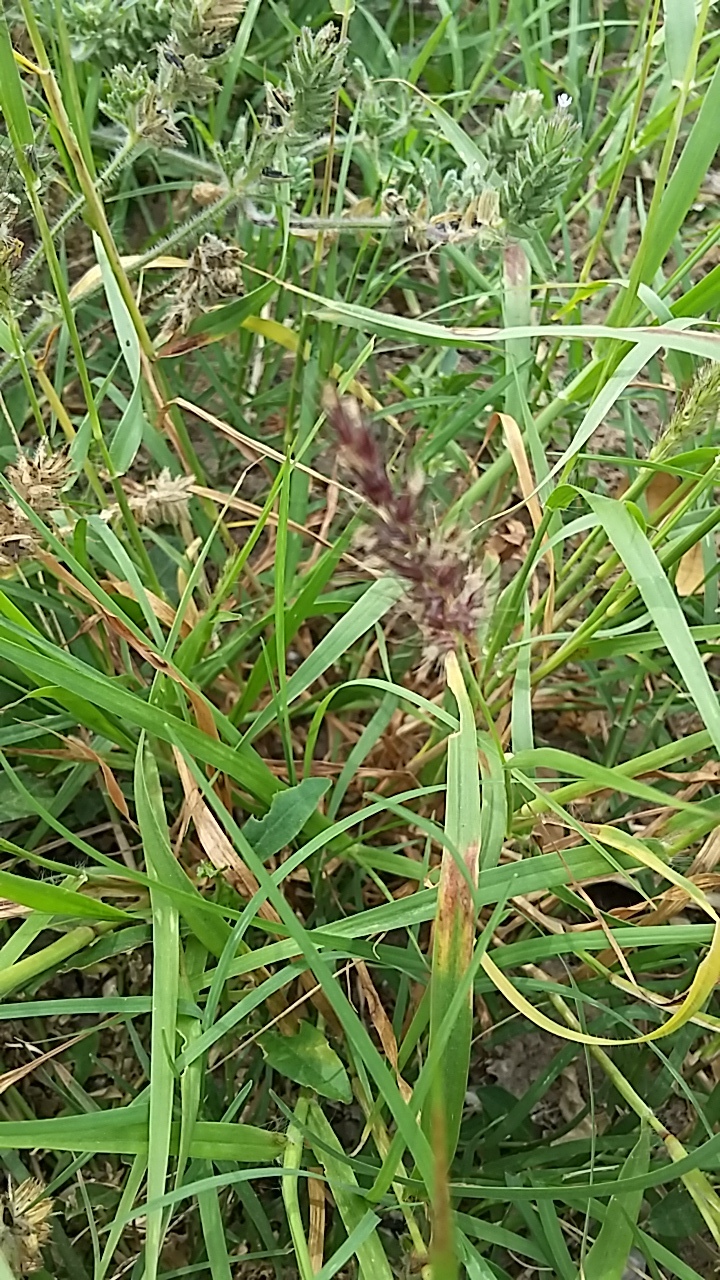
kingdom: Plantae
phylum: Tracheophyta
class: Liliopsida
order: Poales
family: Poaceae
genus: Cenchrus
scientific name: Cenchrus ciliaris
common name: Buffelgrass
